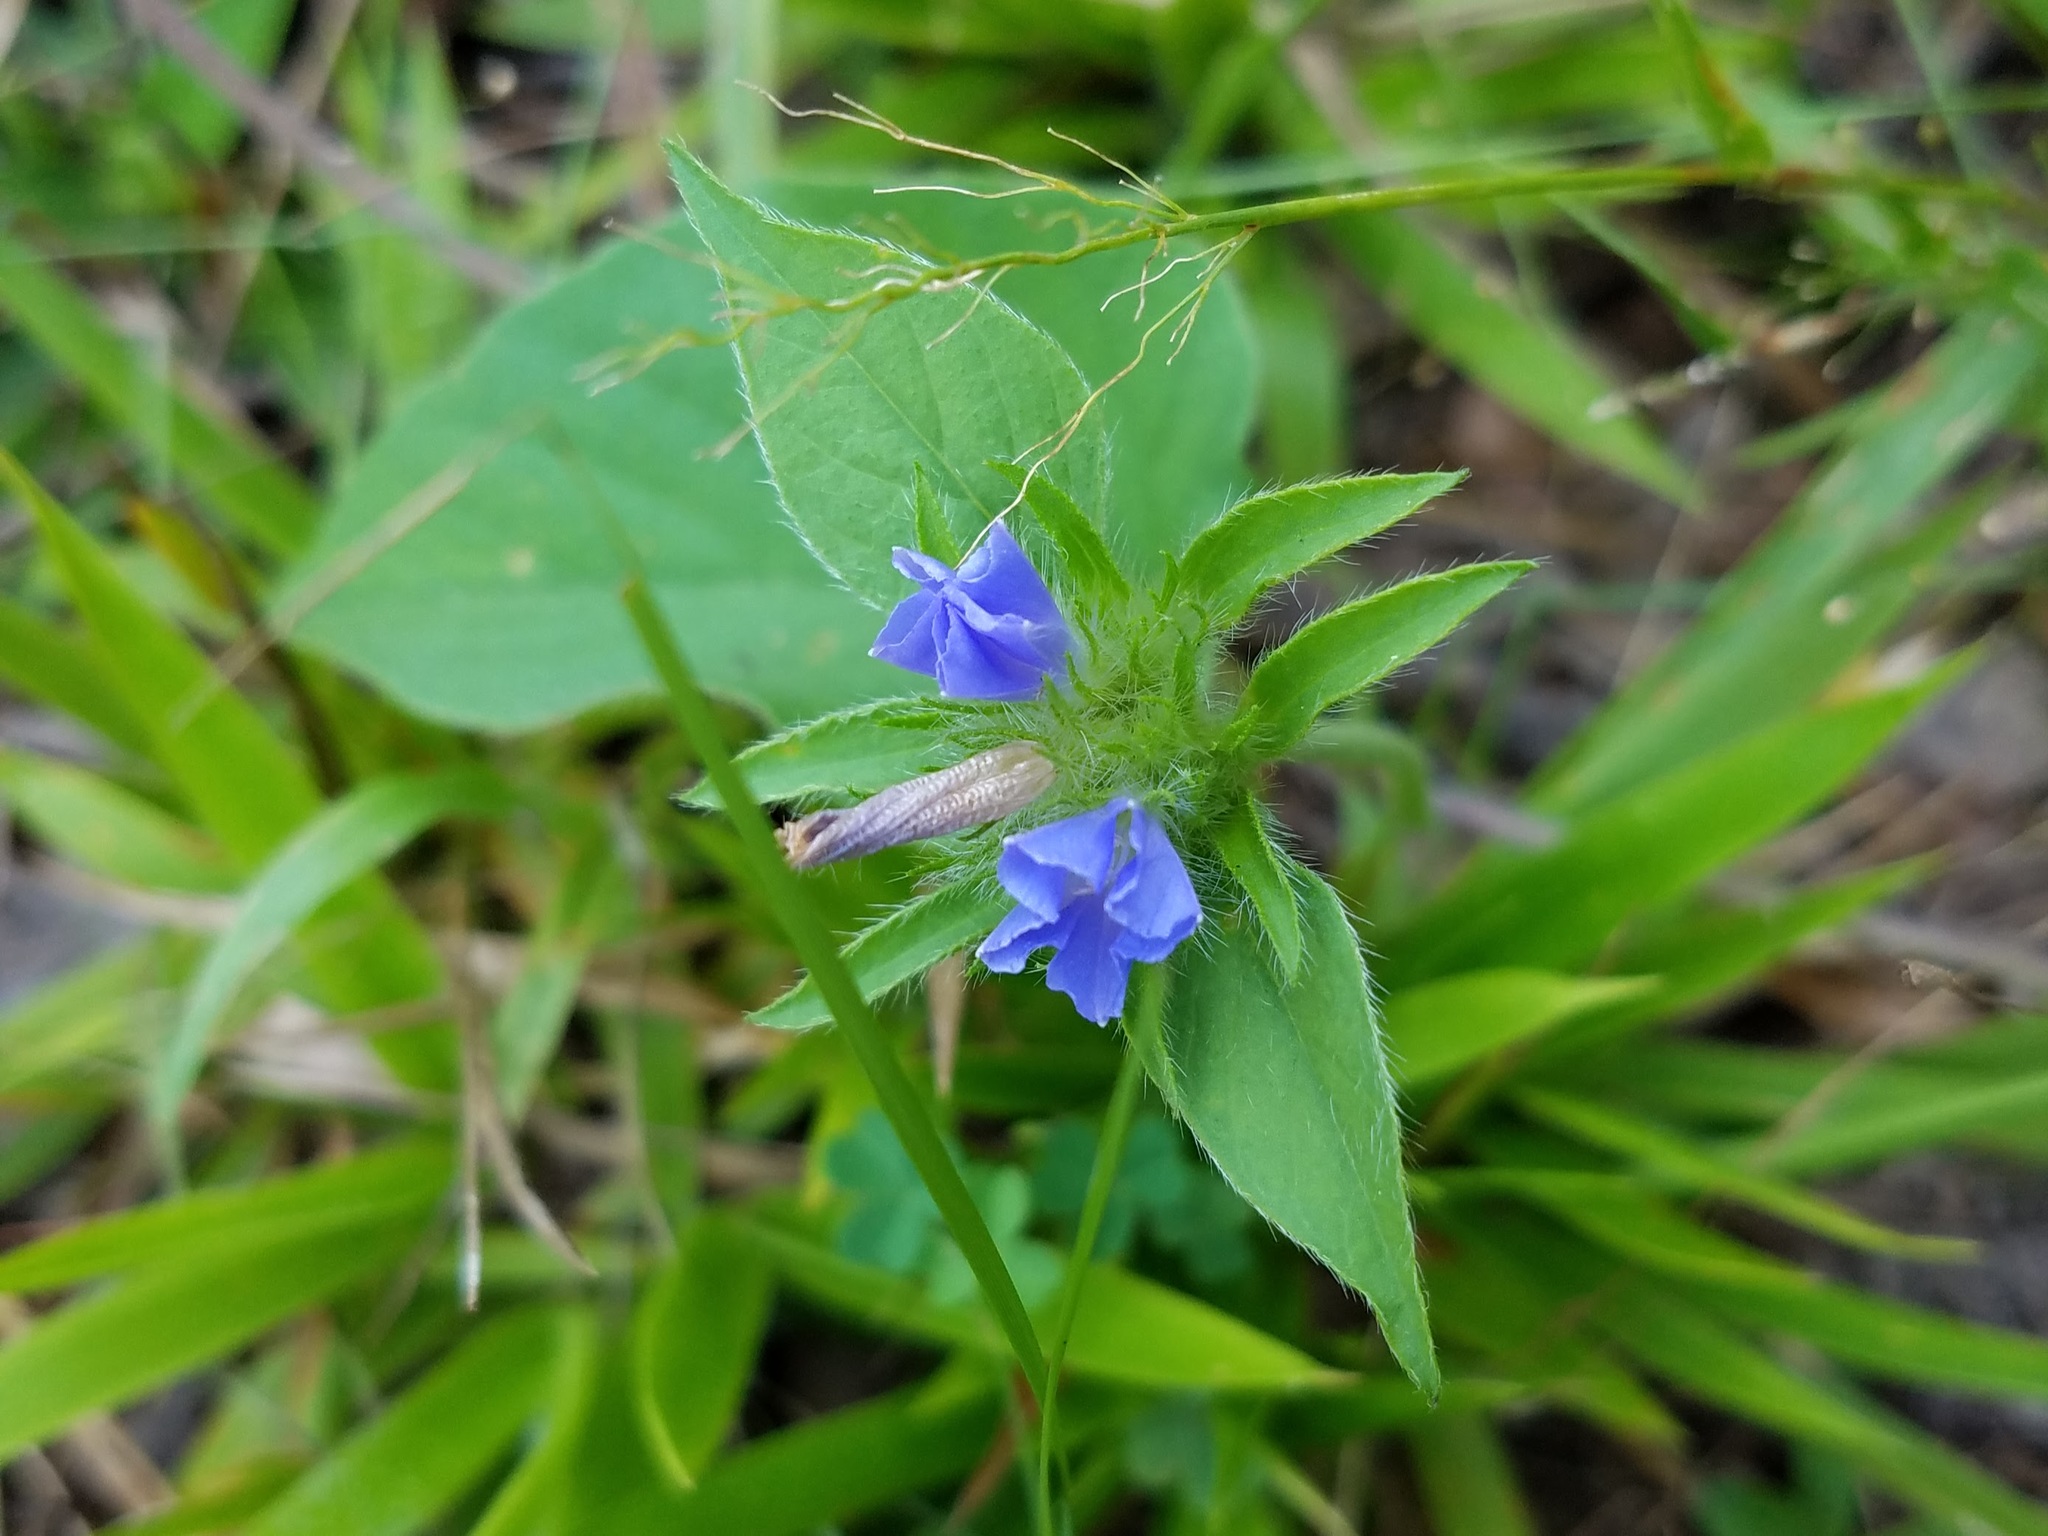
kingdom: Plantae
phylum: Tracheophyta
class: Magnoliopsida
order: Solanales
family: Convolvulaceae
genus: Jacquemontia
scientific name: Jacquemontia tamnifolia
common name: Hairy clustervine
